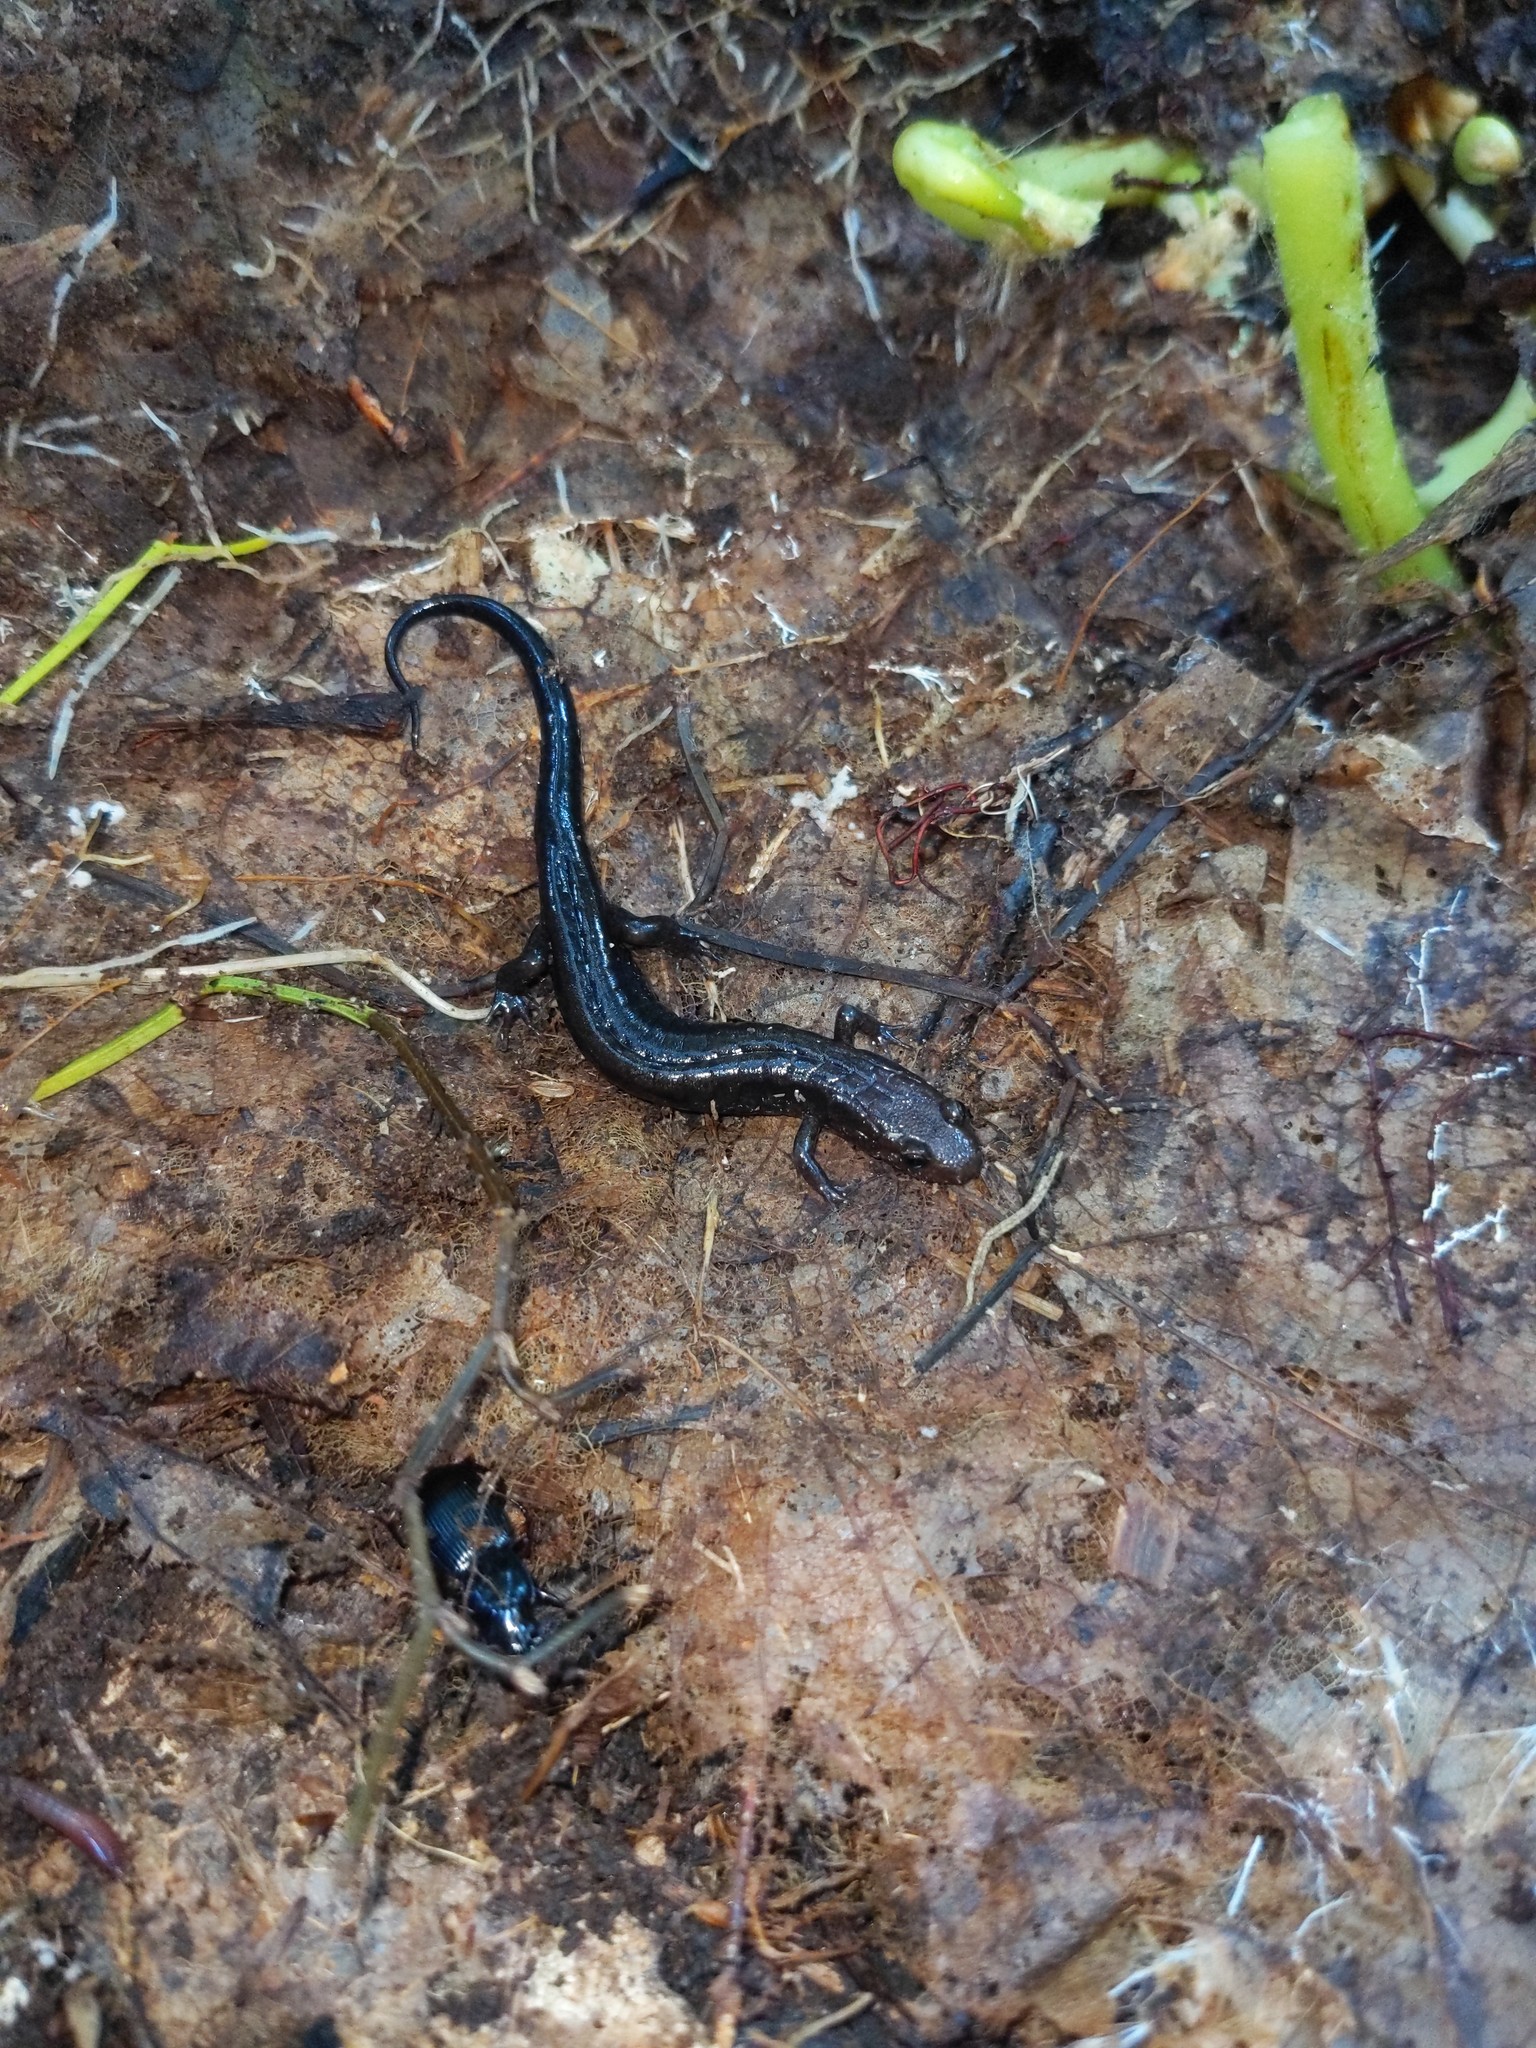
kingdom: Animalia
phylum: Chordata
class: Amphibia
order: Caudata
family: Plethodontidae
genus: Desmognathus
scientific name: Desmognathus ochrophaeus
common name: Allegheny mountain dusky salamander
